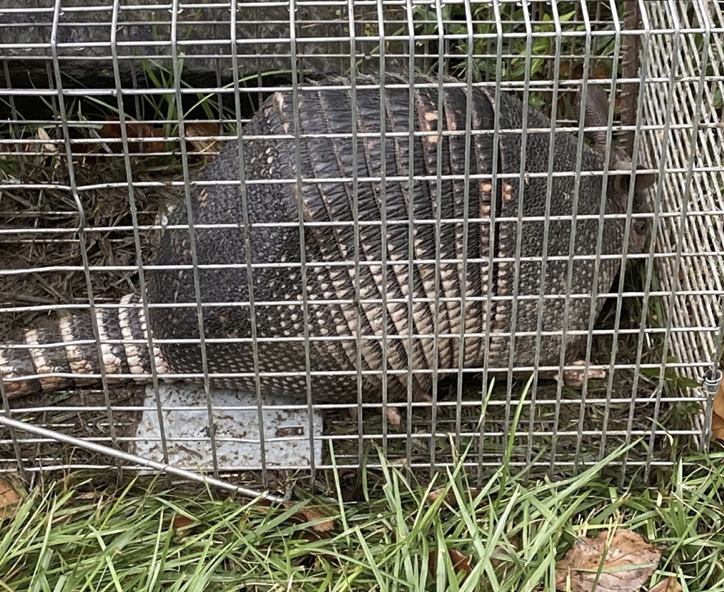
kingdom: Animalia
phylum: Chordata
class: Mammalia
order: Cingulata
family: Dasypodidae
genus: Dasypus
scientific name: Dasypus novemcinctus
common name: Nine-banded armadillo
